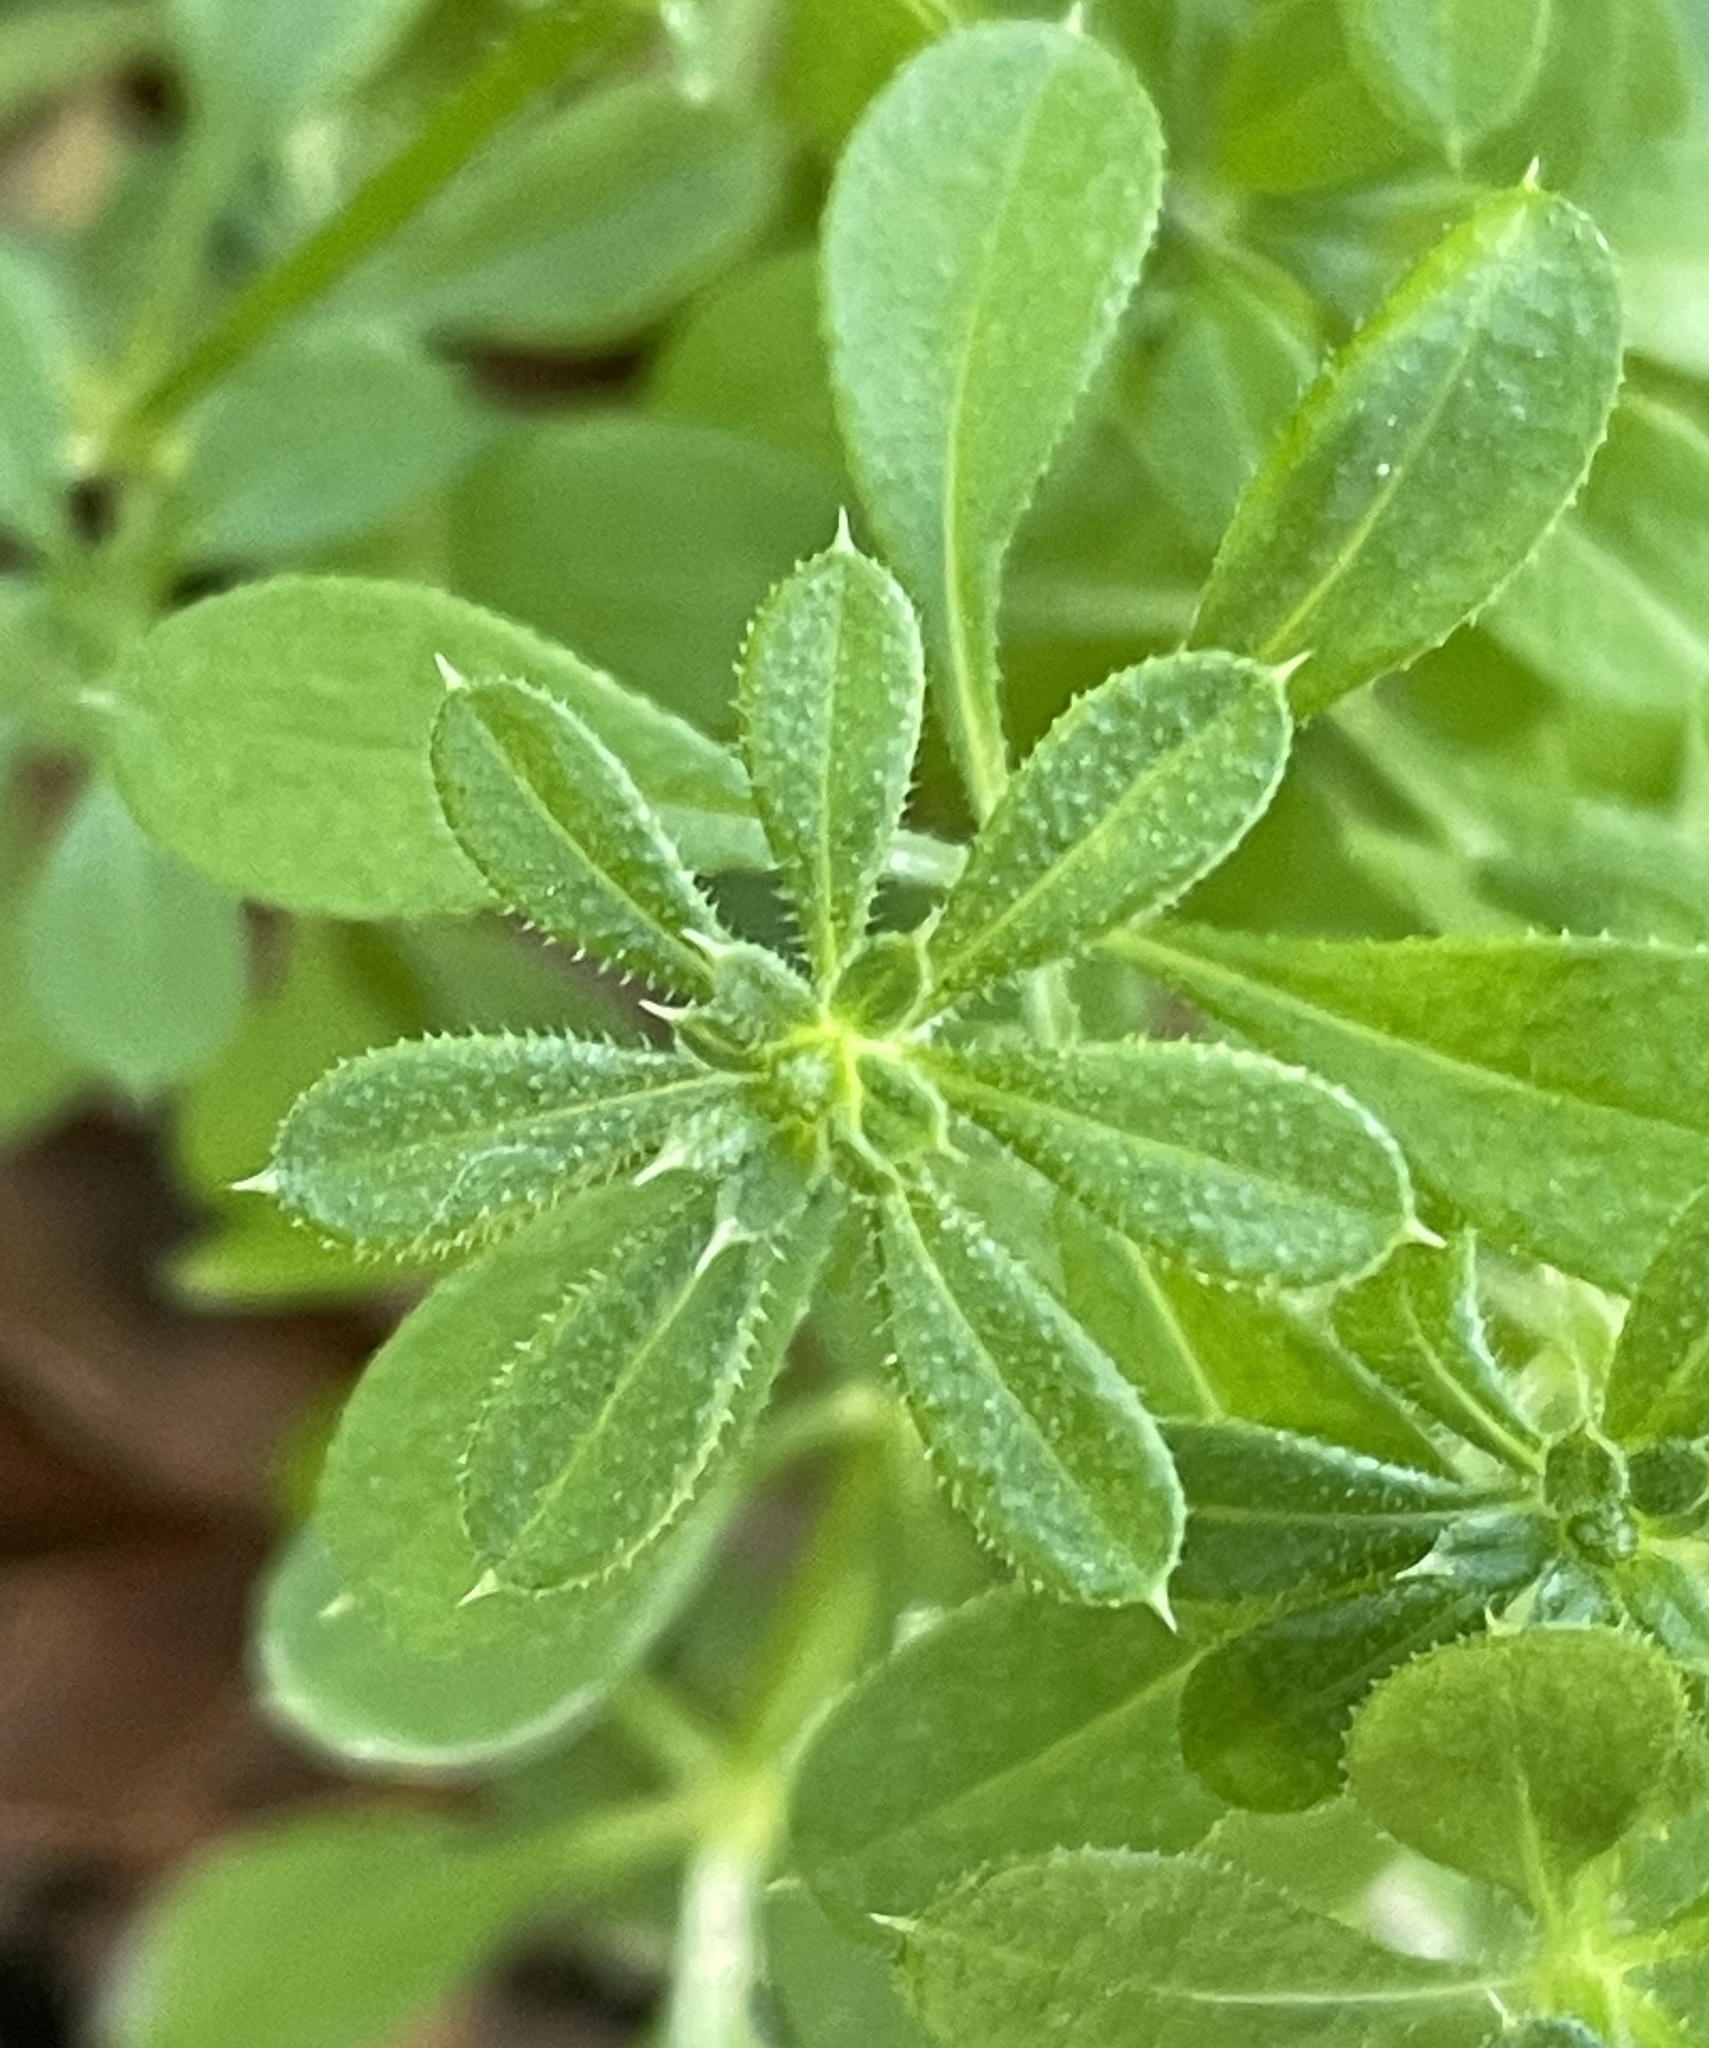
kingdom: Plantae
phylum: Tracheophyta
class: Magnoliopsida
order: Gentianales
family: Rubiaceae
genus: Galium
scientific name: Galium aparine
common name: Cleavers
